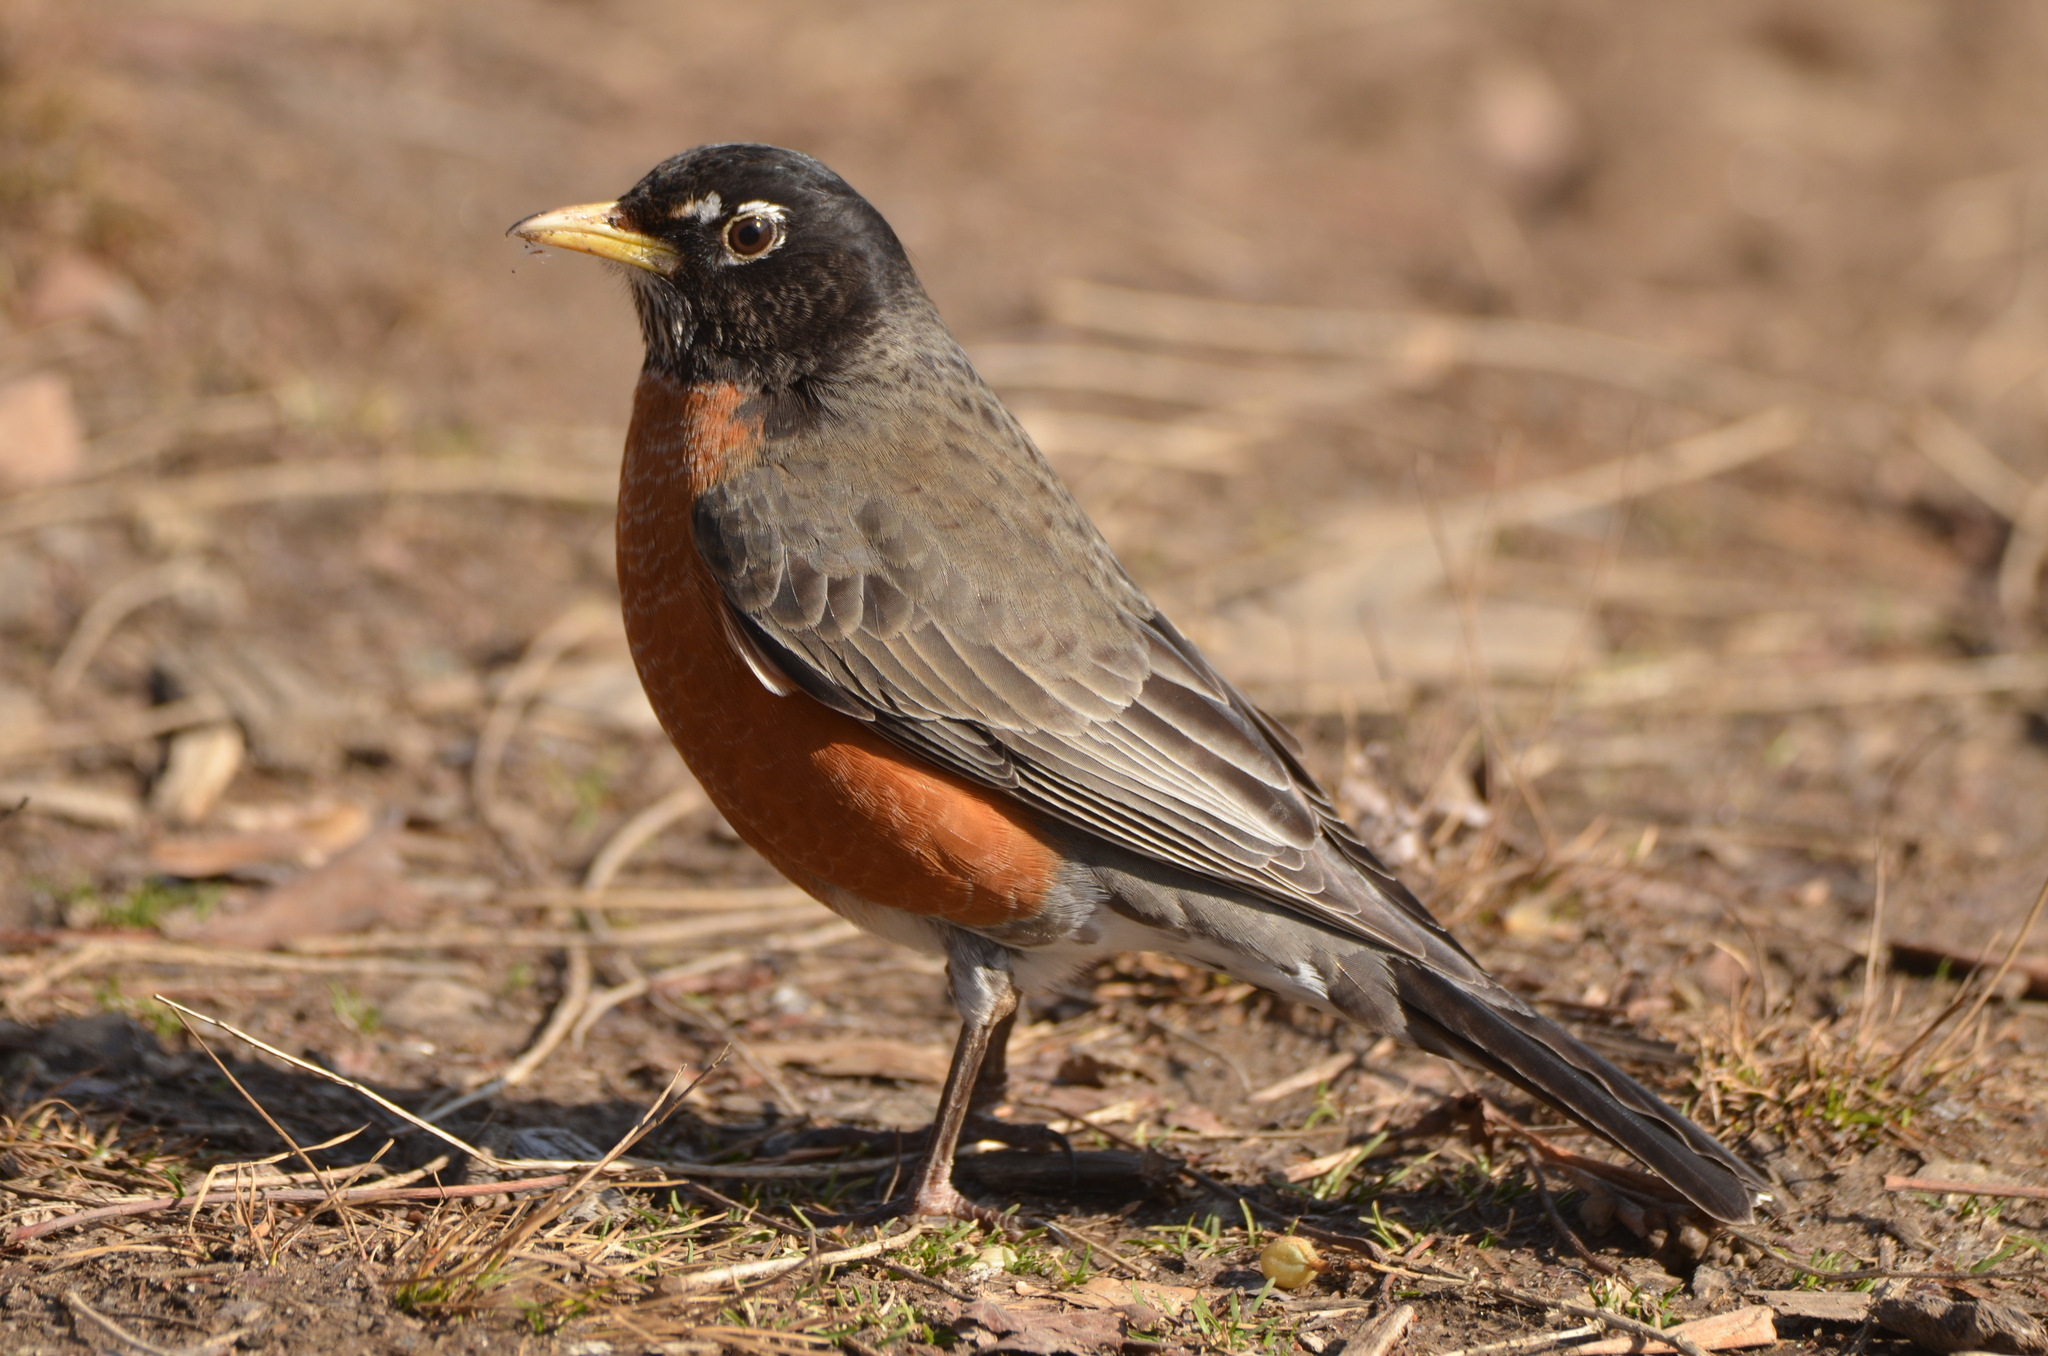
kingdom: Animalia
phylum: Chordata
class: Aves
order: Passeriformes
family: Turdidae
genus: Turdus
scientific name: Turdus migratorius
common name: American robin
